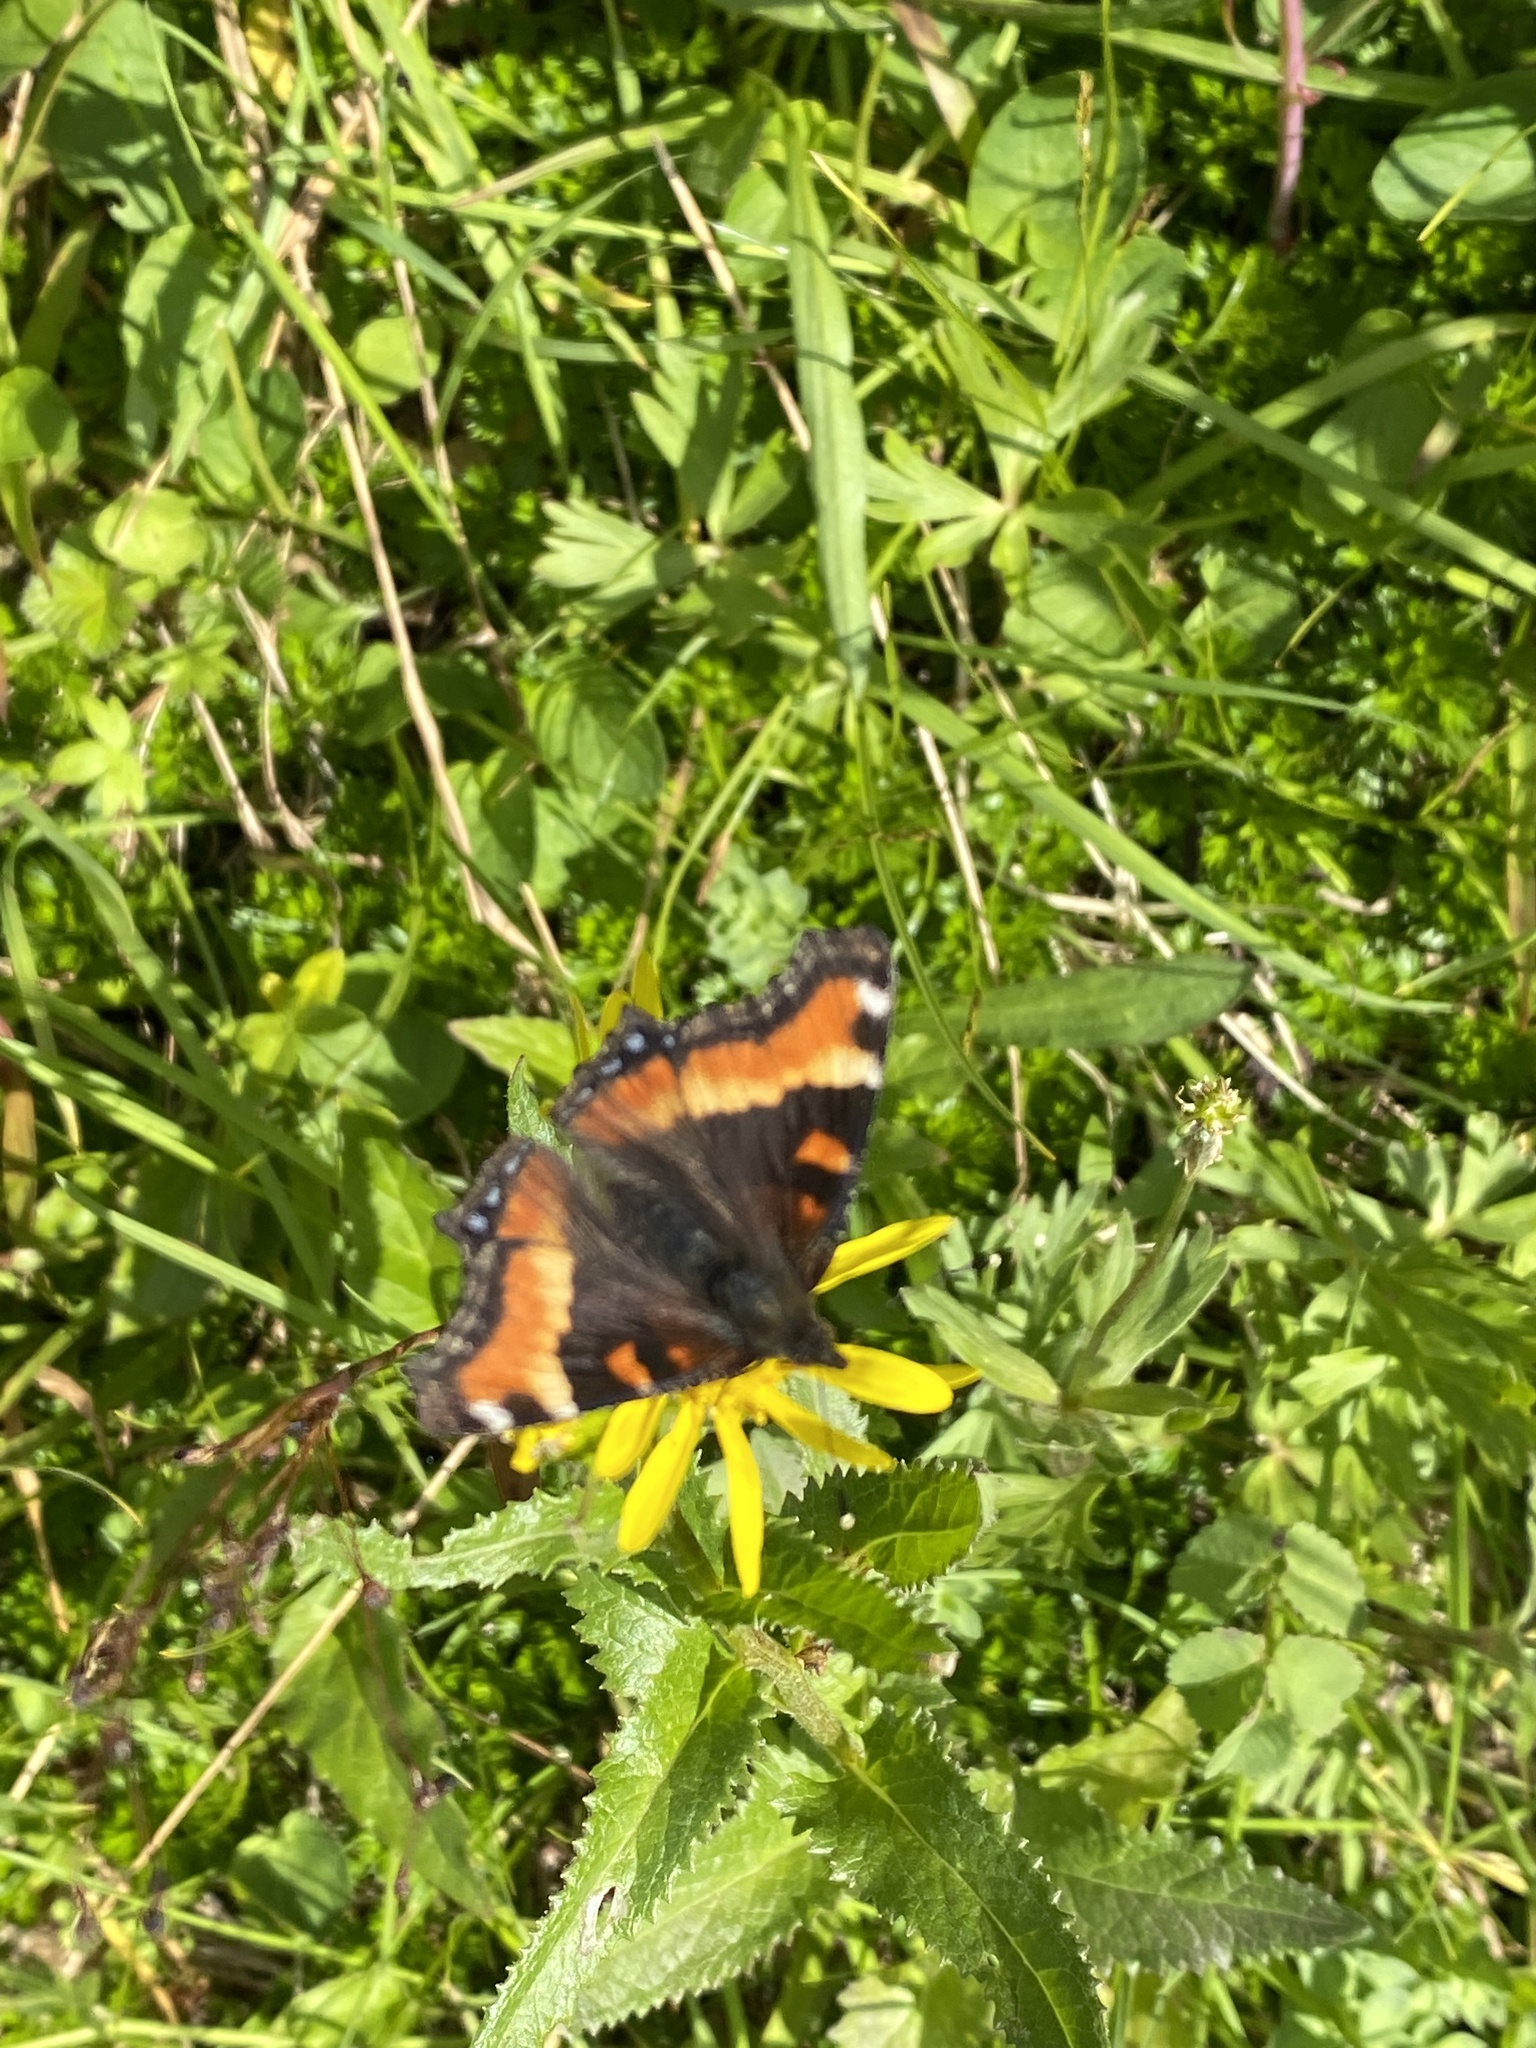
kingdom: Animalia
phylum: Arthropoda
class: Insecta
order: Lepidoptera
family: Nymphalidae
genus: Aglais
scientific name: Aglais milberti
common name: Milbert's tortoiseshell
